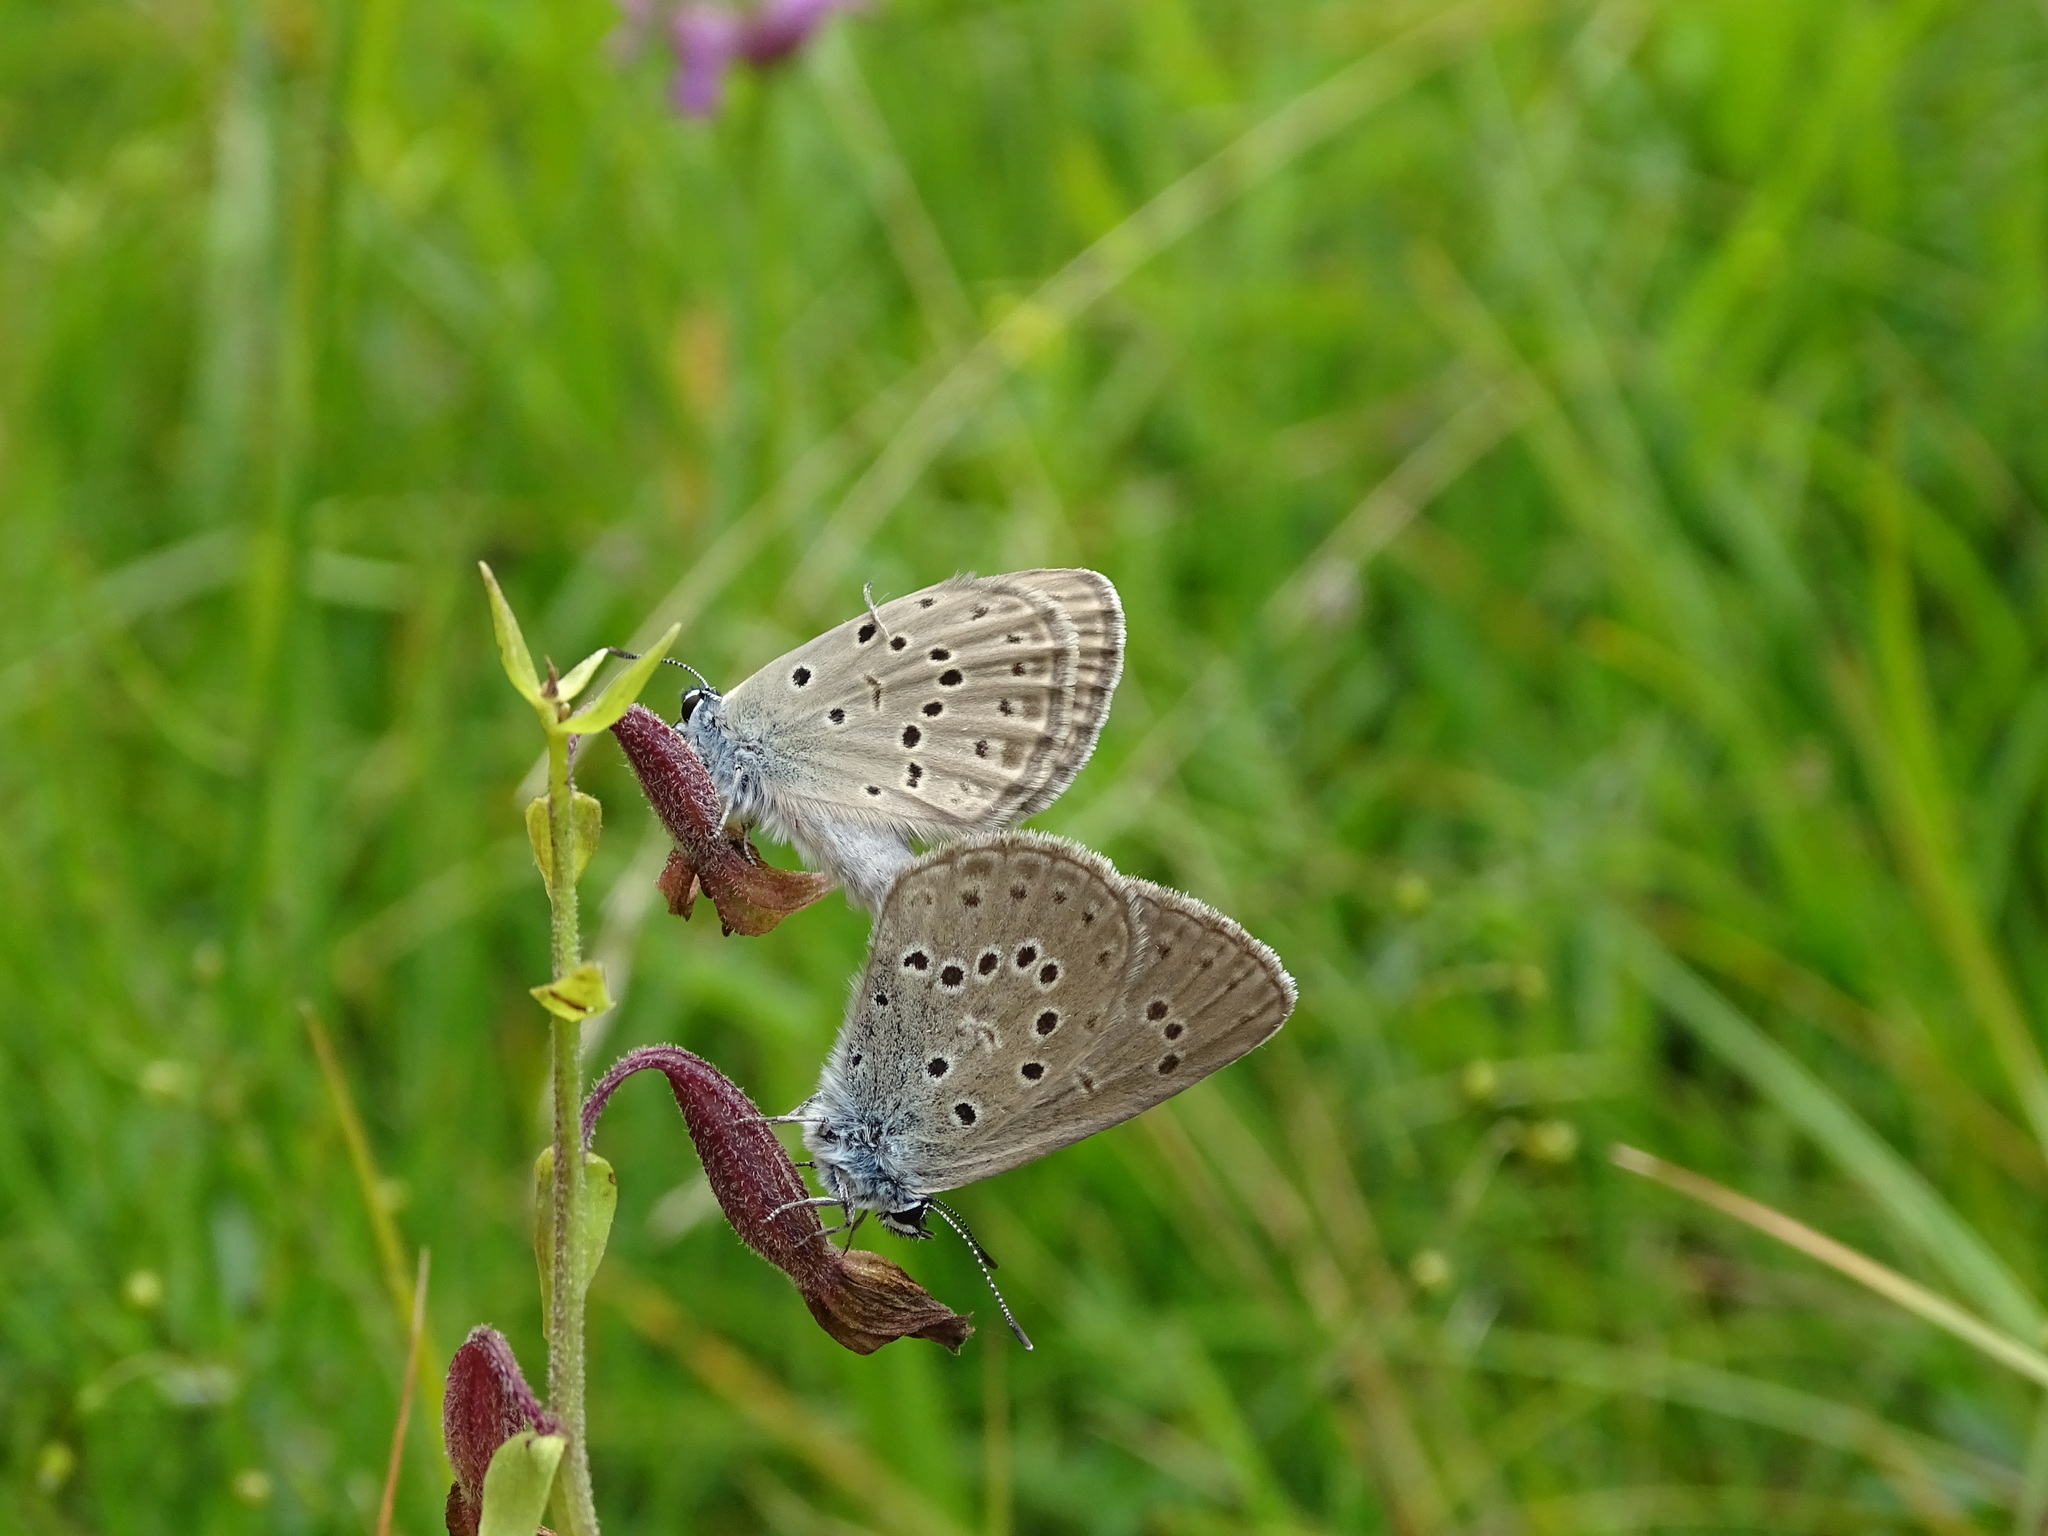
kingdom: Animalia
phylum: Arthropoda
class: Insecta
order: Lepidoptera
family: Lycaenidae
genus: Maculinea
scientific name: Maculinea alcon
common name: Alcon blue
